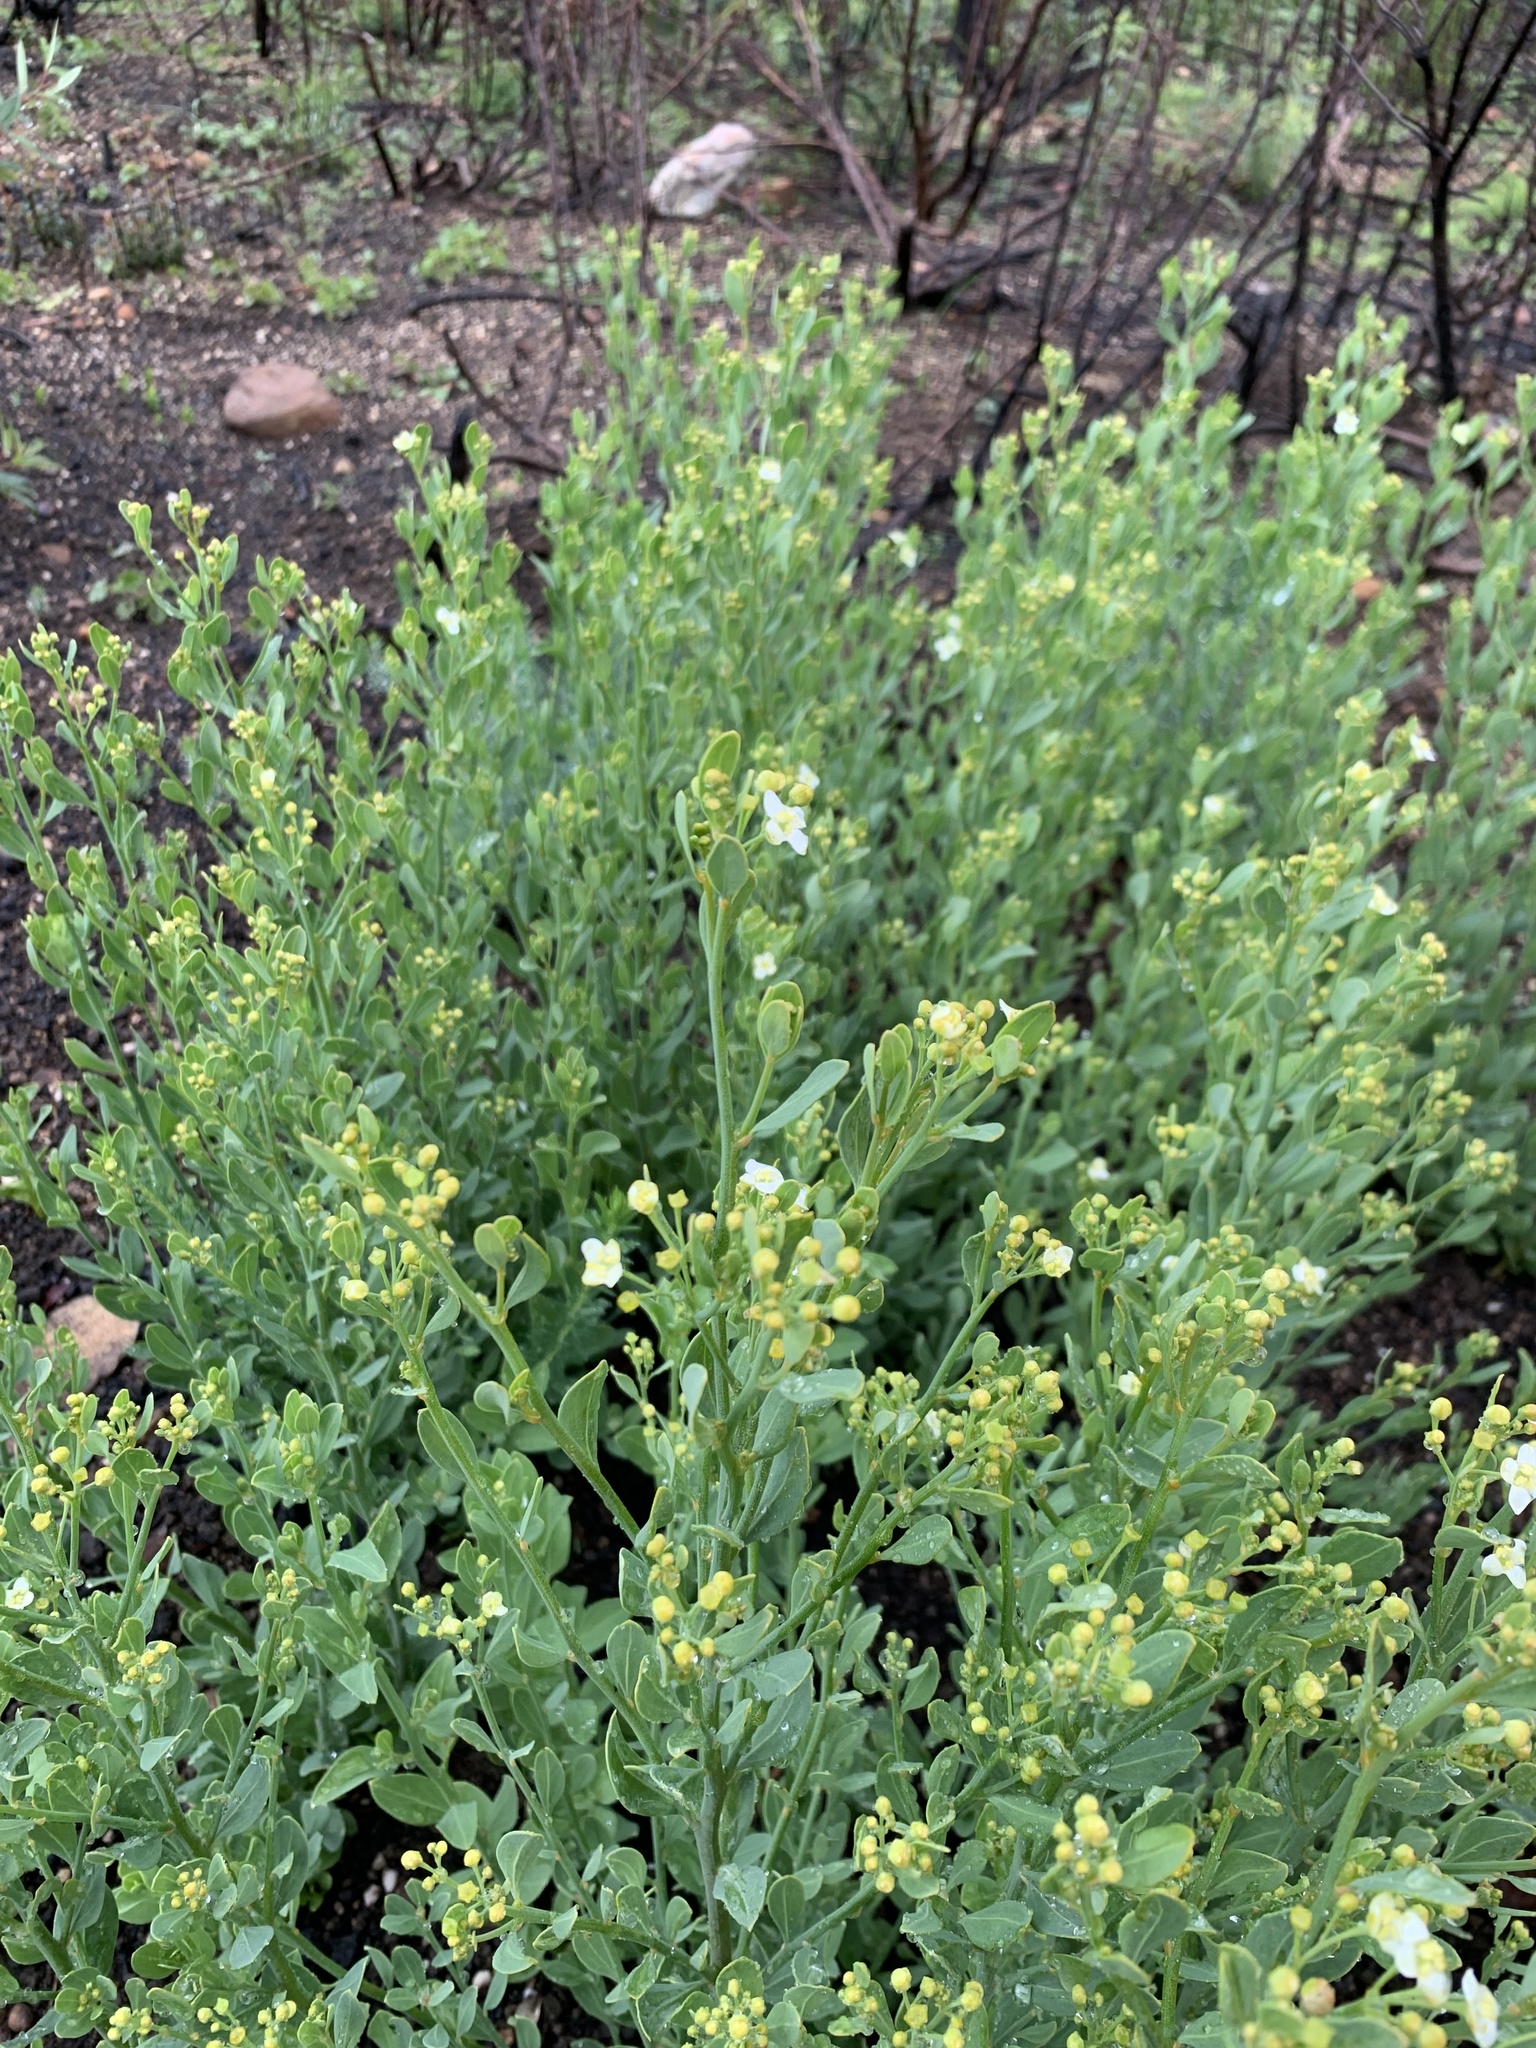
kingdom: Plantae
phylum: Tracheophyta
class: Magnoliopsida
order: Solanales
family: Montiniaceae
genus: Montinia
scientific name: Montinia caryophyllacea
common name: Wild clove-bush
